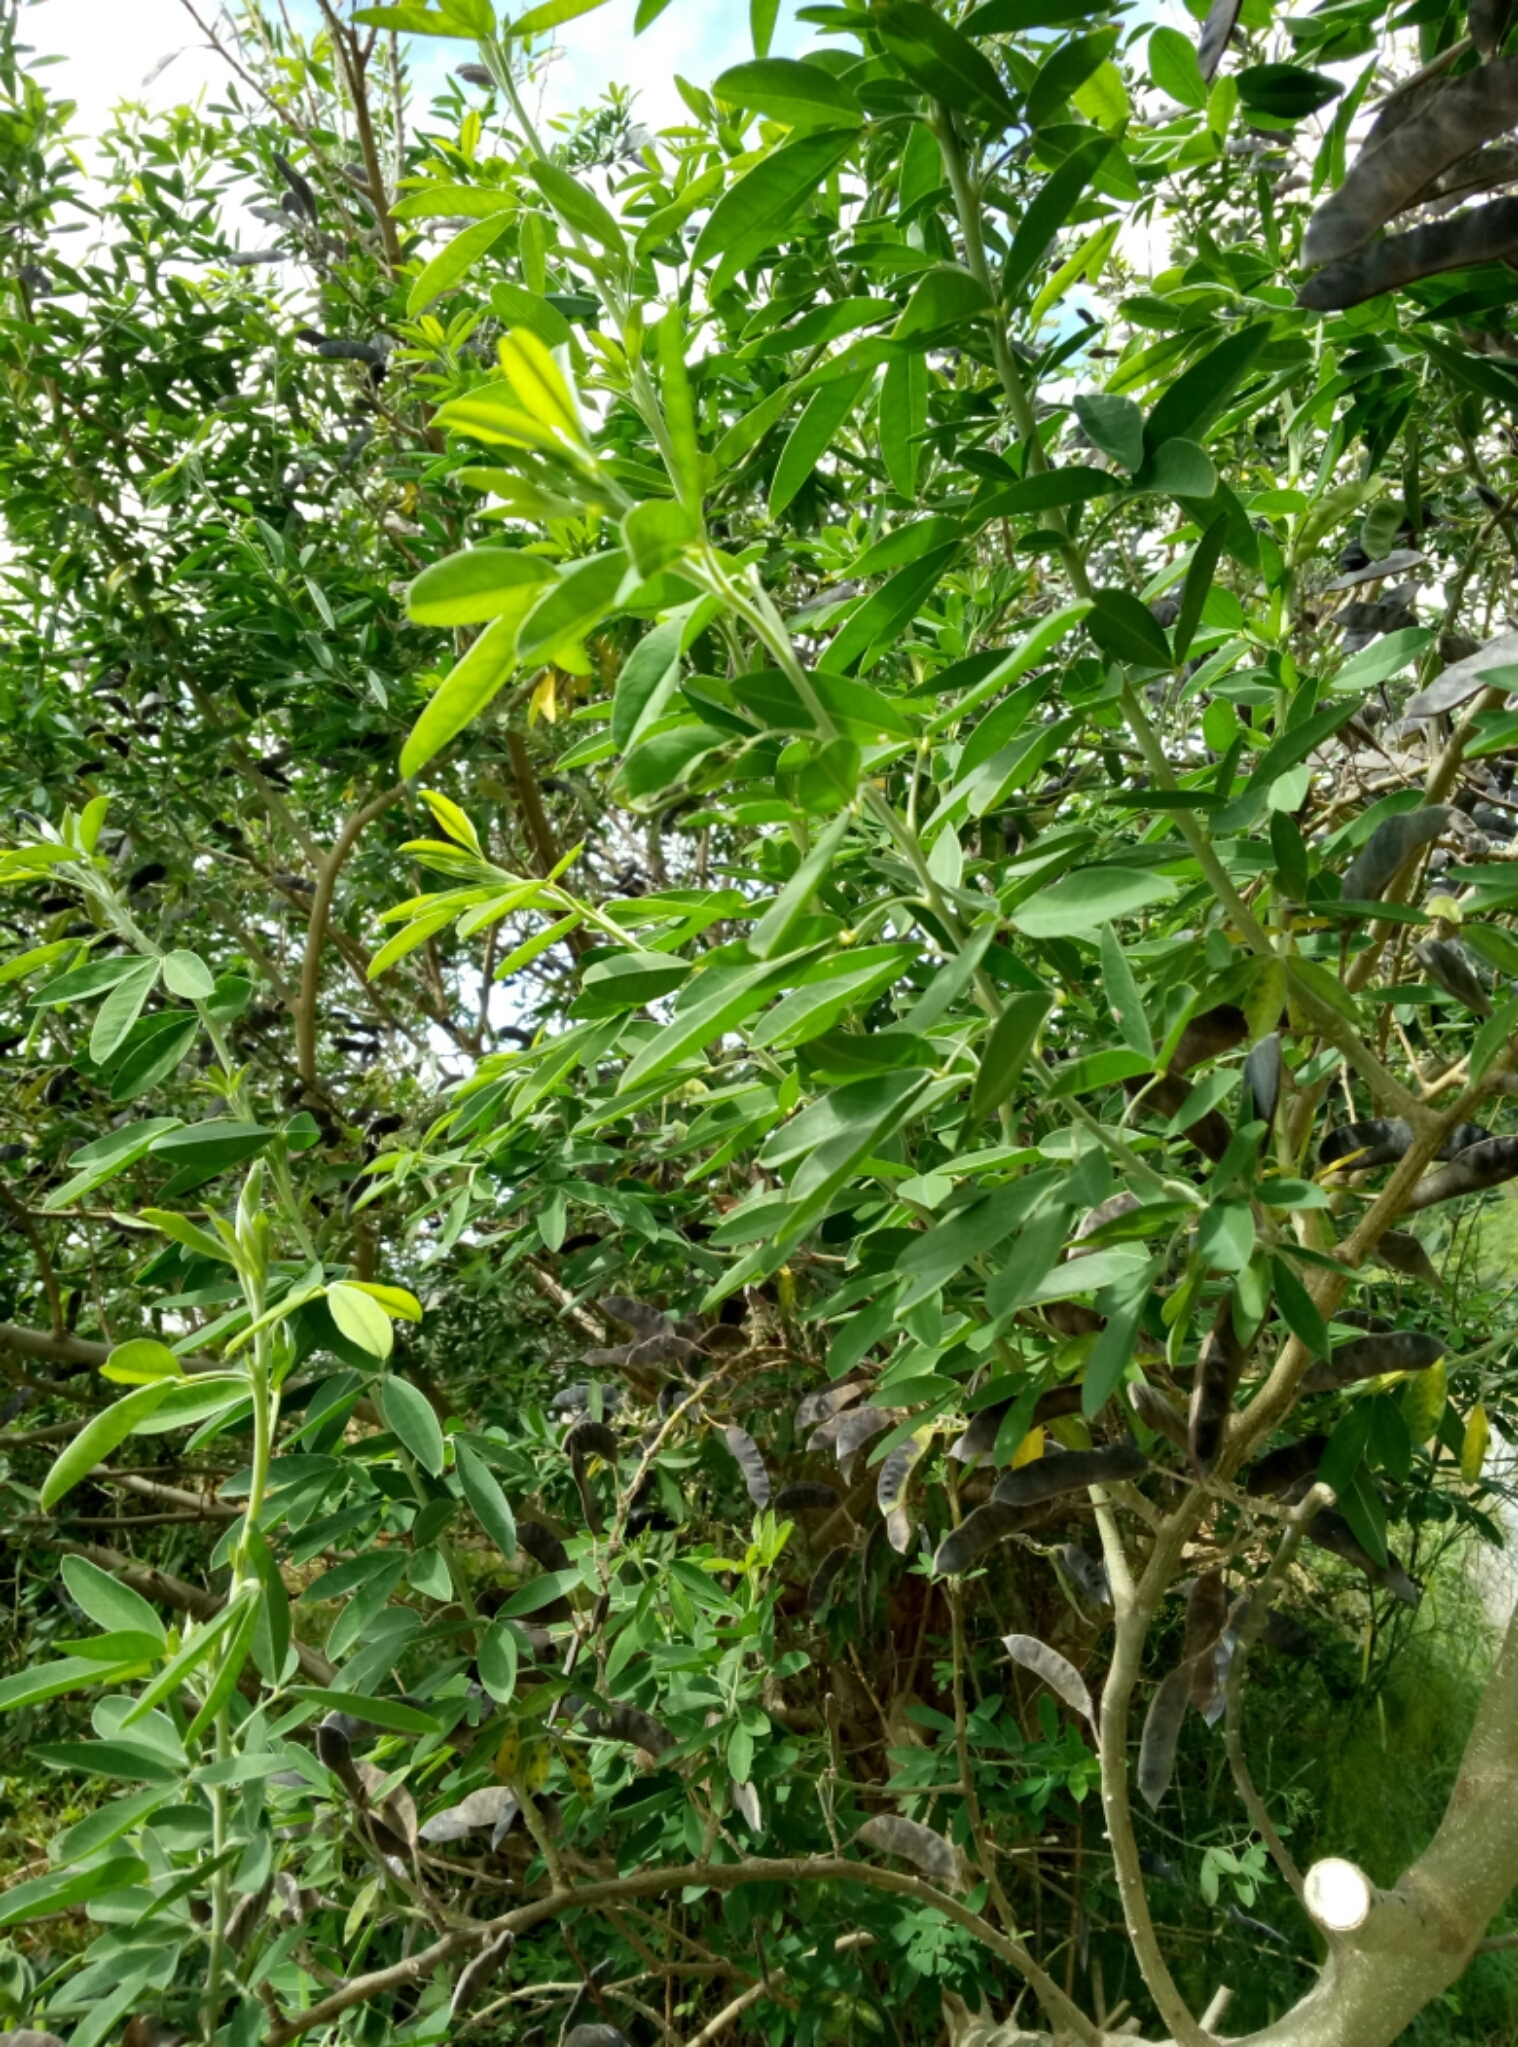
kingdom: Plantae
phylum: Tracheophyta
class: Magnoliopsida
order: Fabales
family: Fabaceae
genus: Chamaecytisus
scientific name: Chamaecytisus prolifer
